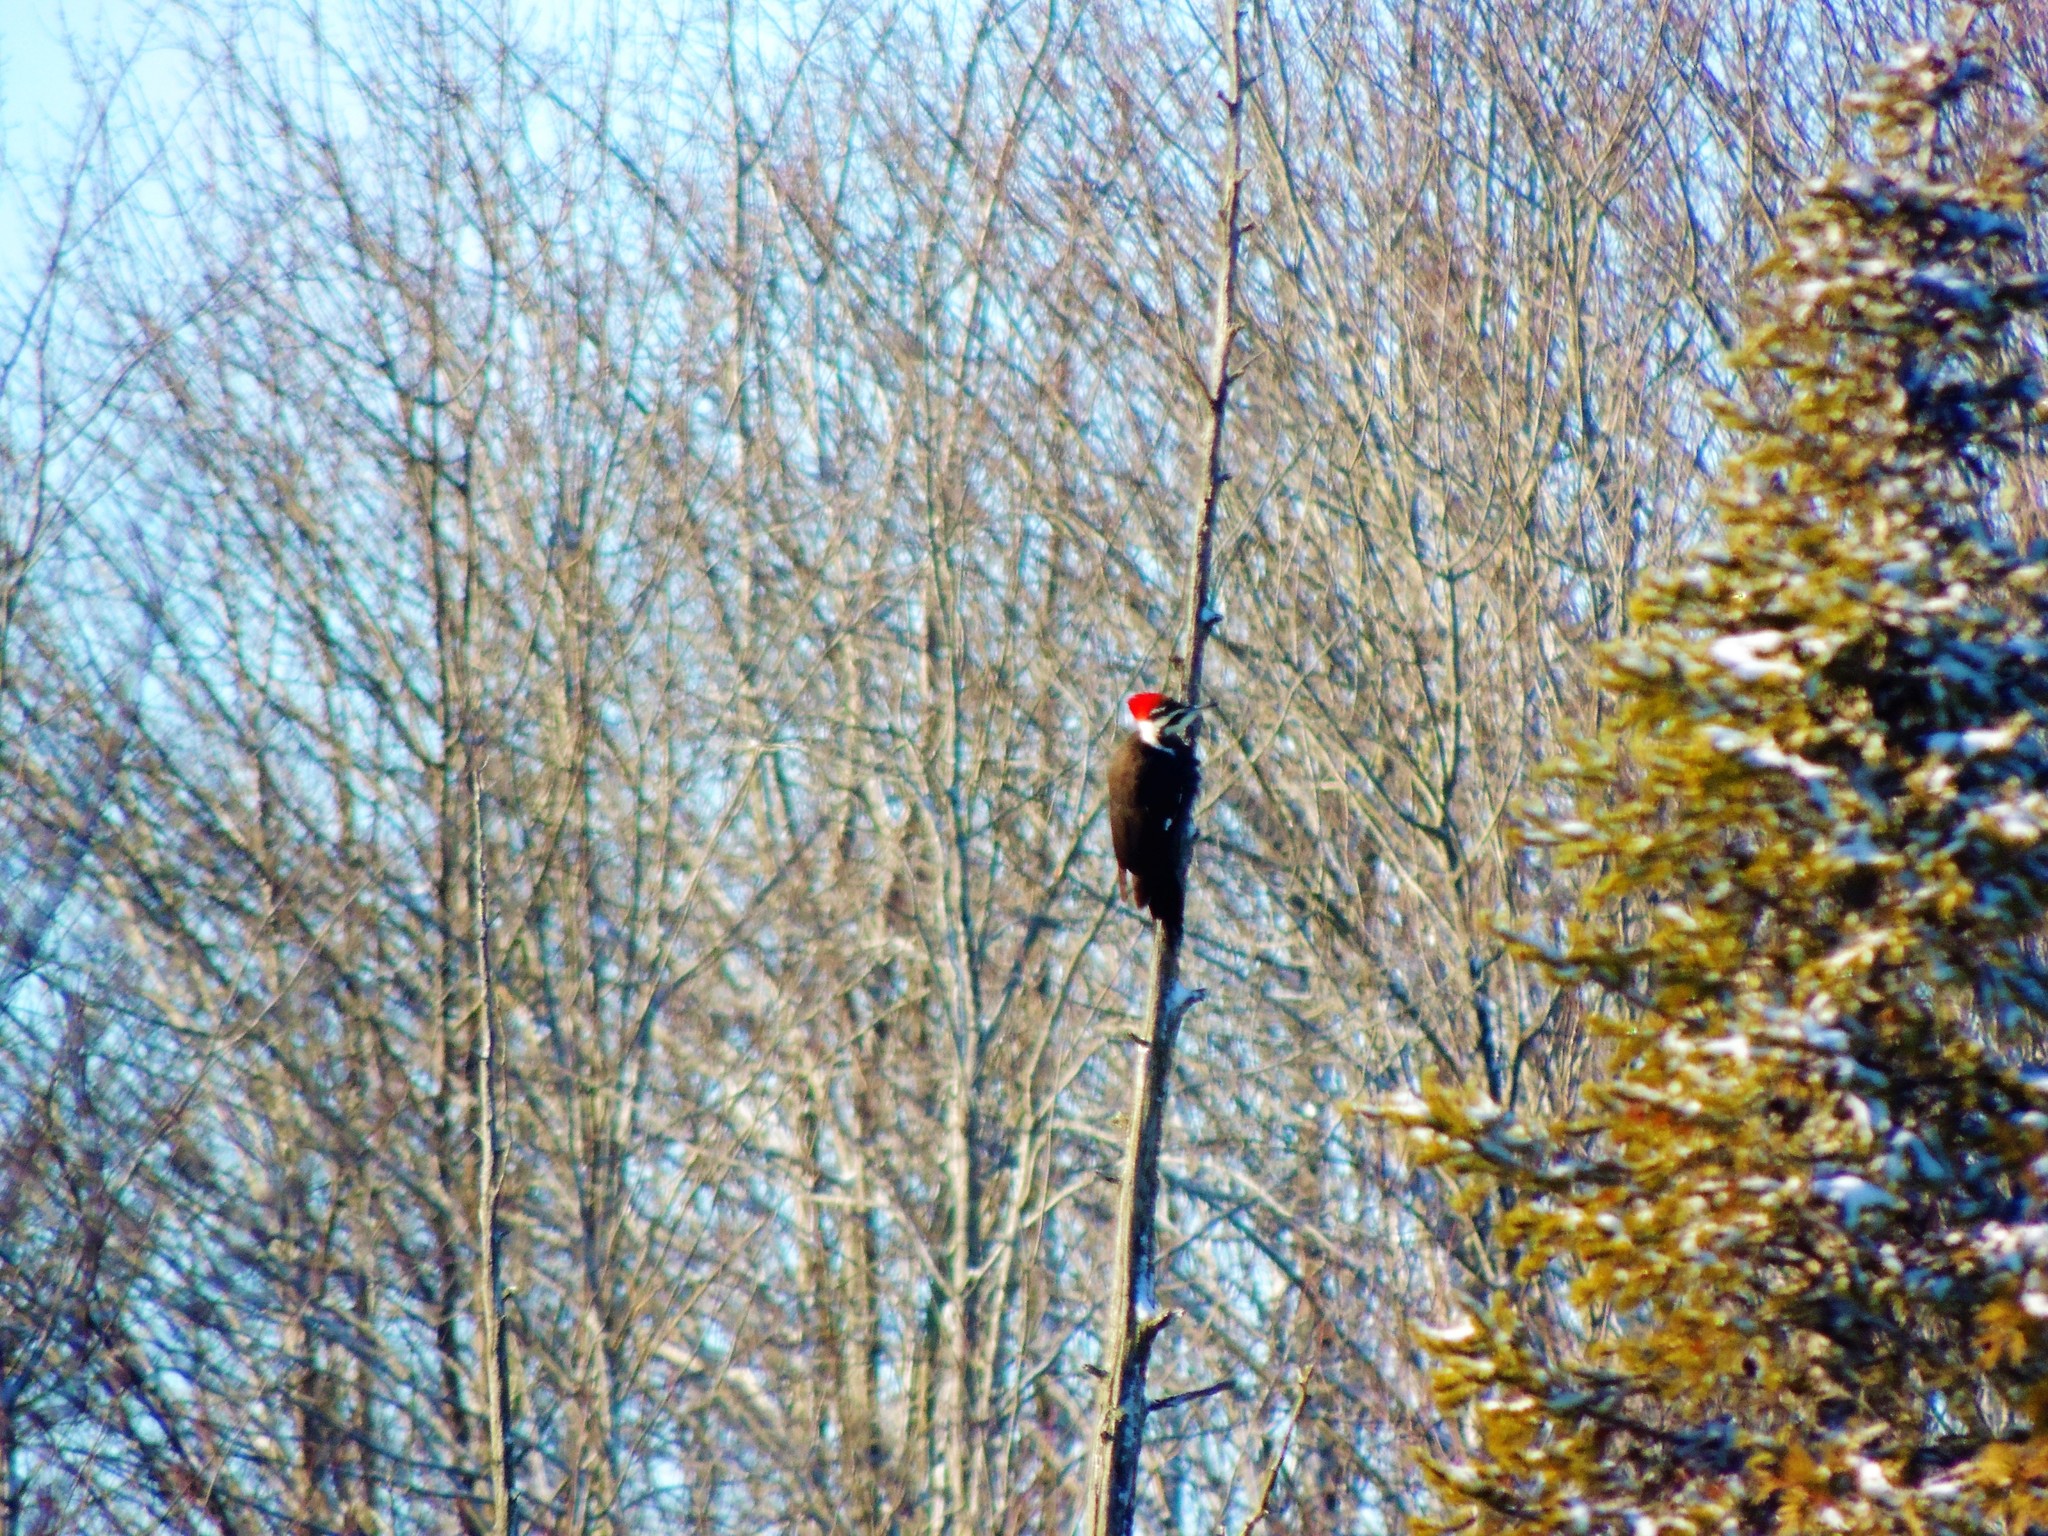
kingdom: Animalia
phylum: Chordata
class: Aves
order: Piciformes
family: Picidae
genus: Dryocopus
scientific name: Dryocopus pileatus
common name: Pileated woodpecker
